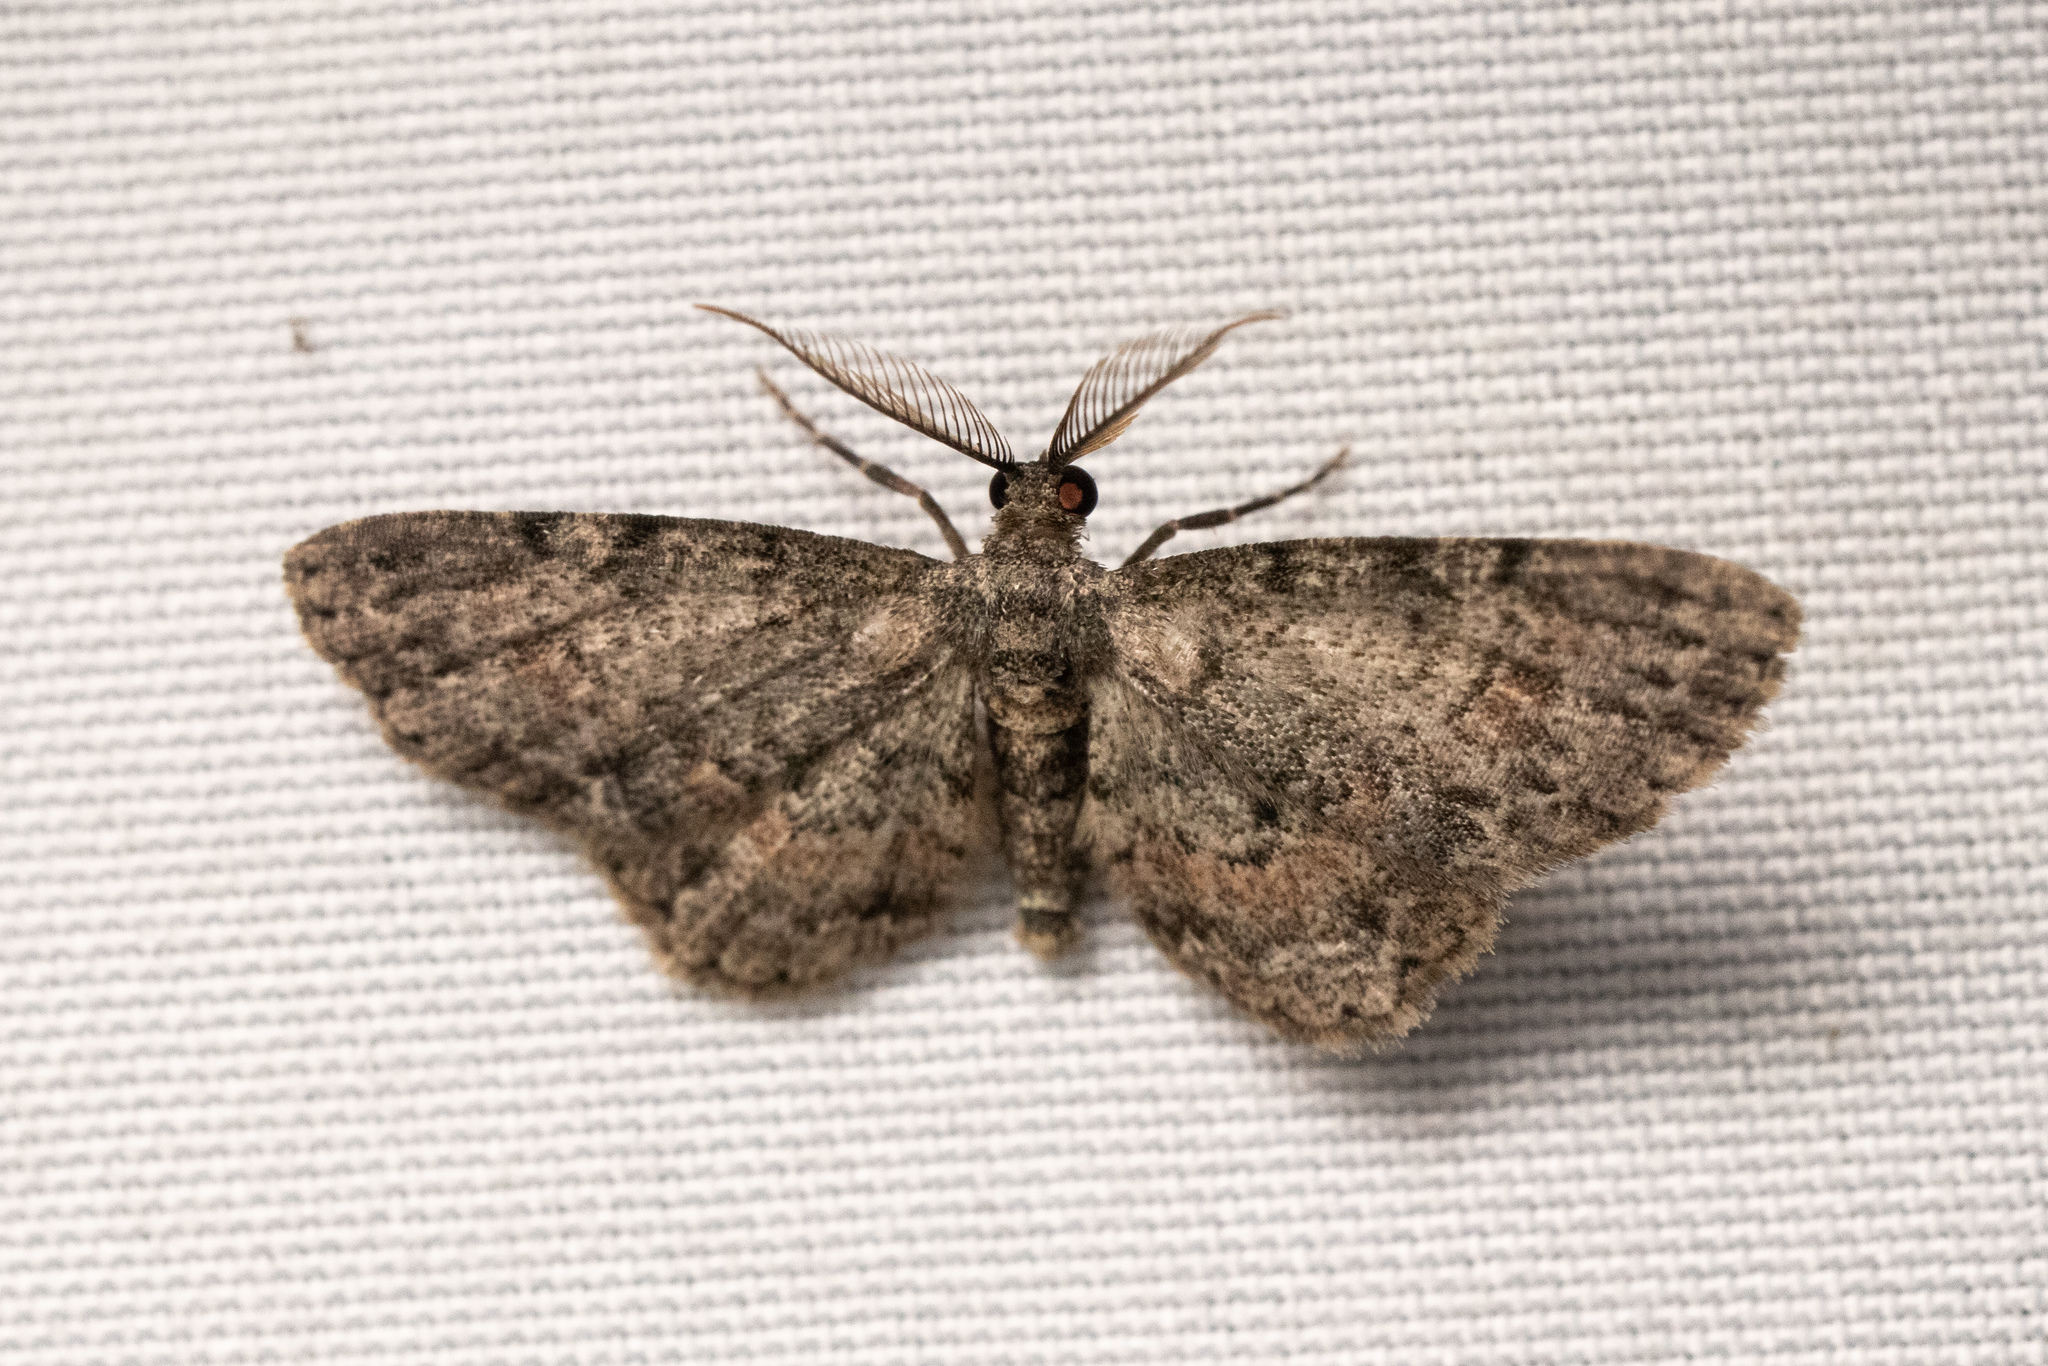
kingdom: Animalia
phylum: Arthropoda
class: Insecta
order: Lepidoptera
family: Geometridae
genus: Glenoides
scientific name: Glenoides texanaria
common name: Texas gray
